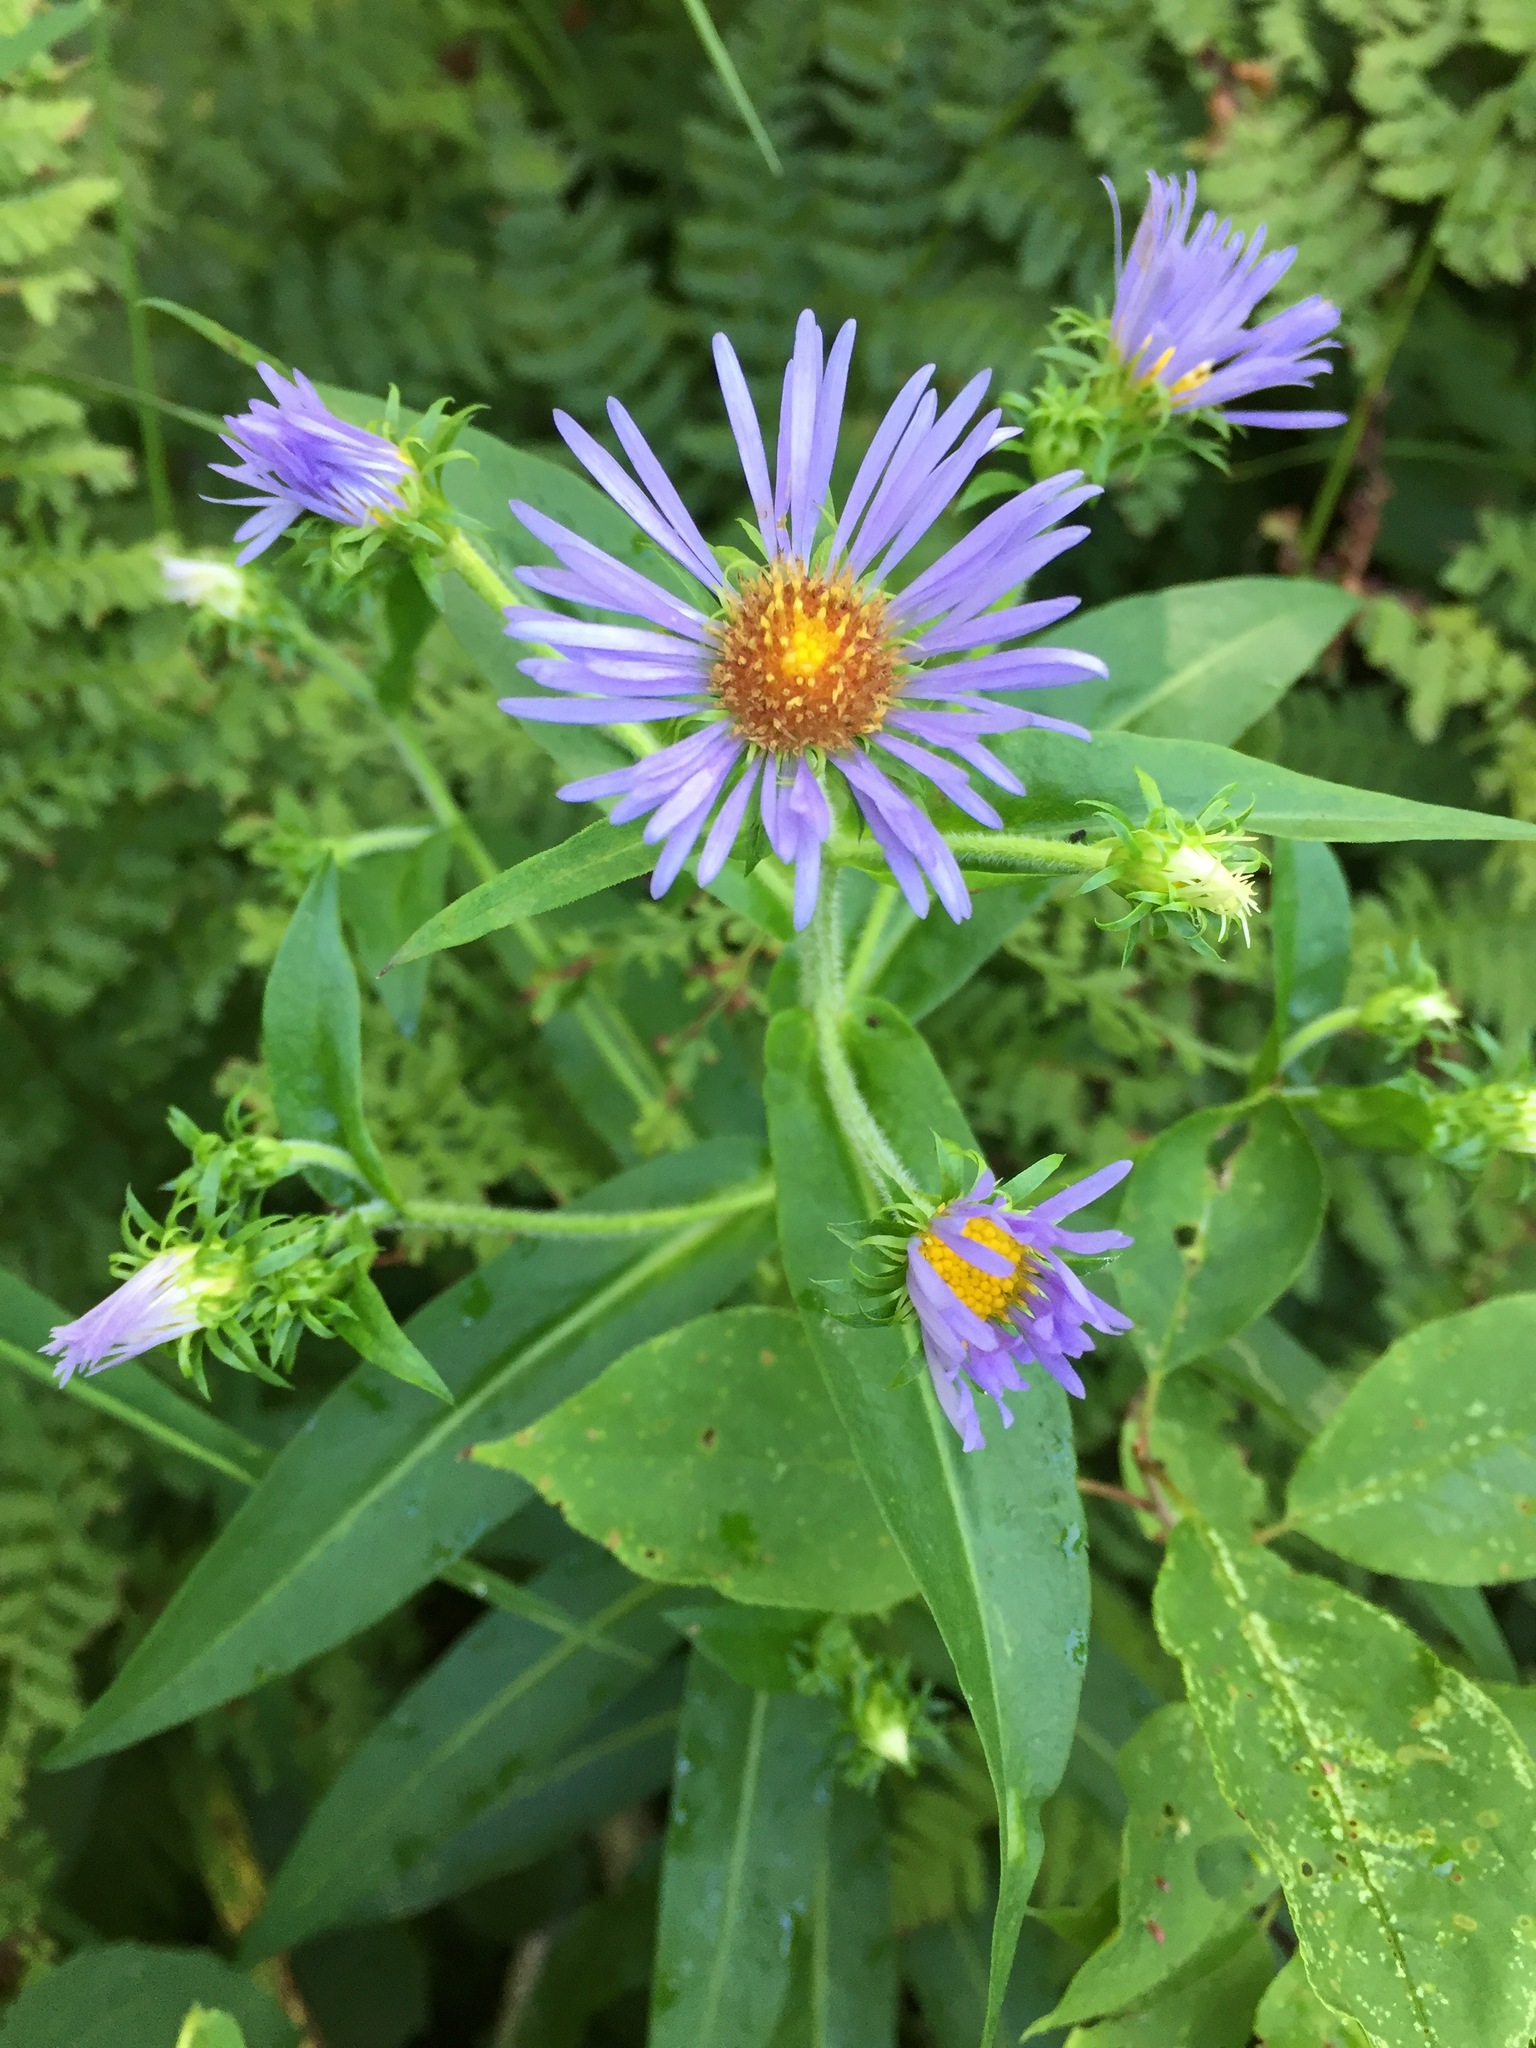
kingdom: Plantae
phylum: Tracheophyta
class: Magnoliopsida
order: Asterales
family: Asteraceae
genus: Symphyotrichum
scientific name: Symphyotrichum puniceum
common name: Bog aster
